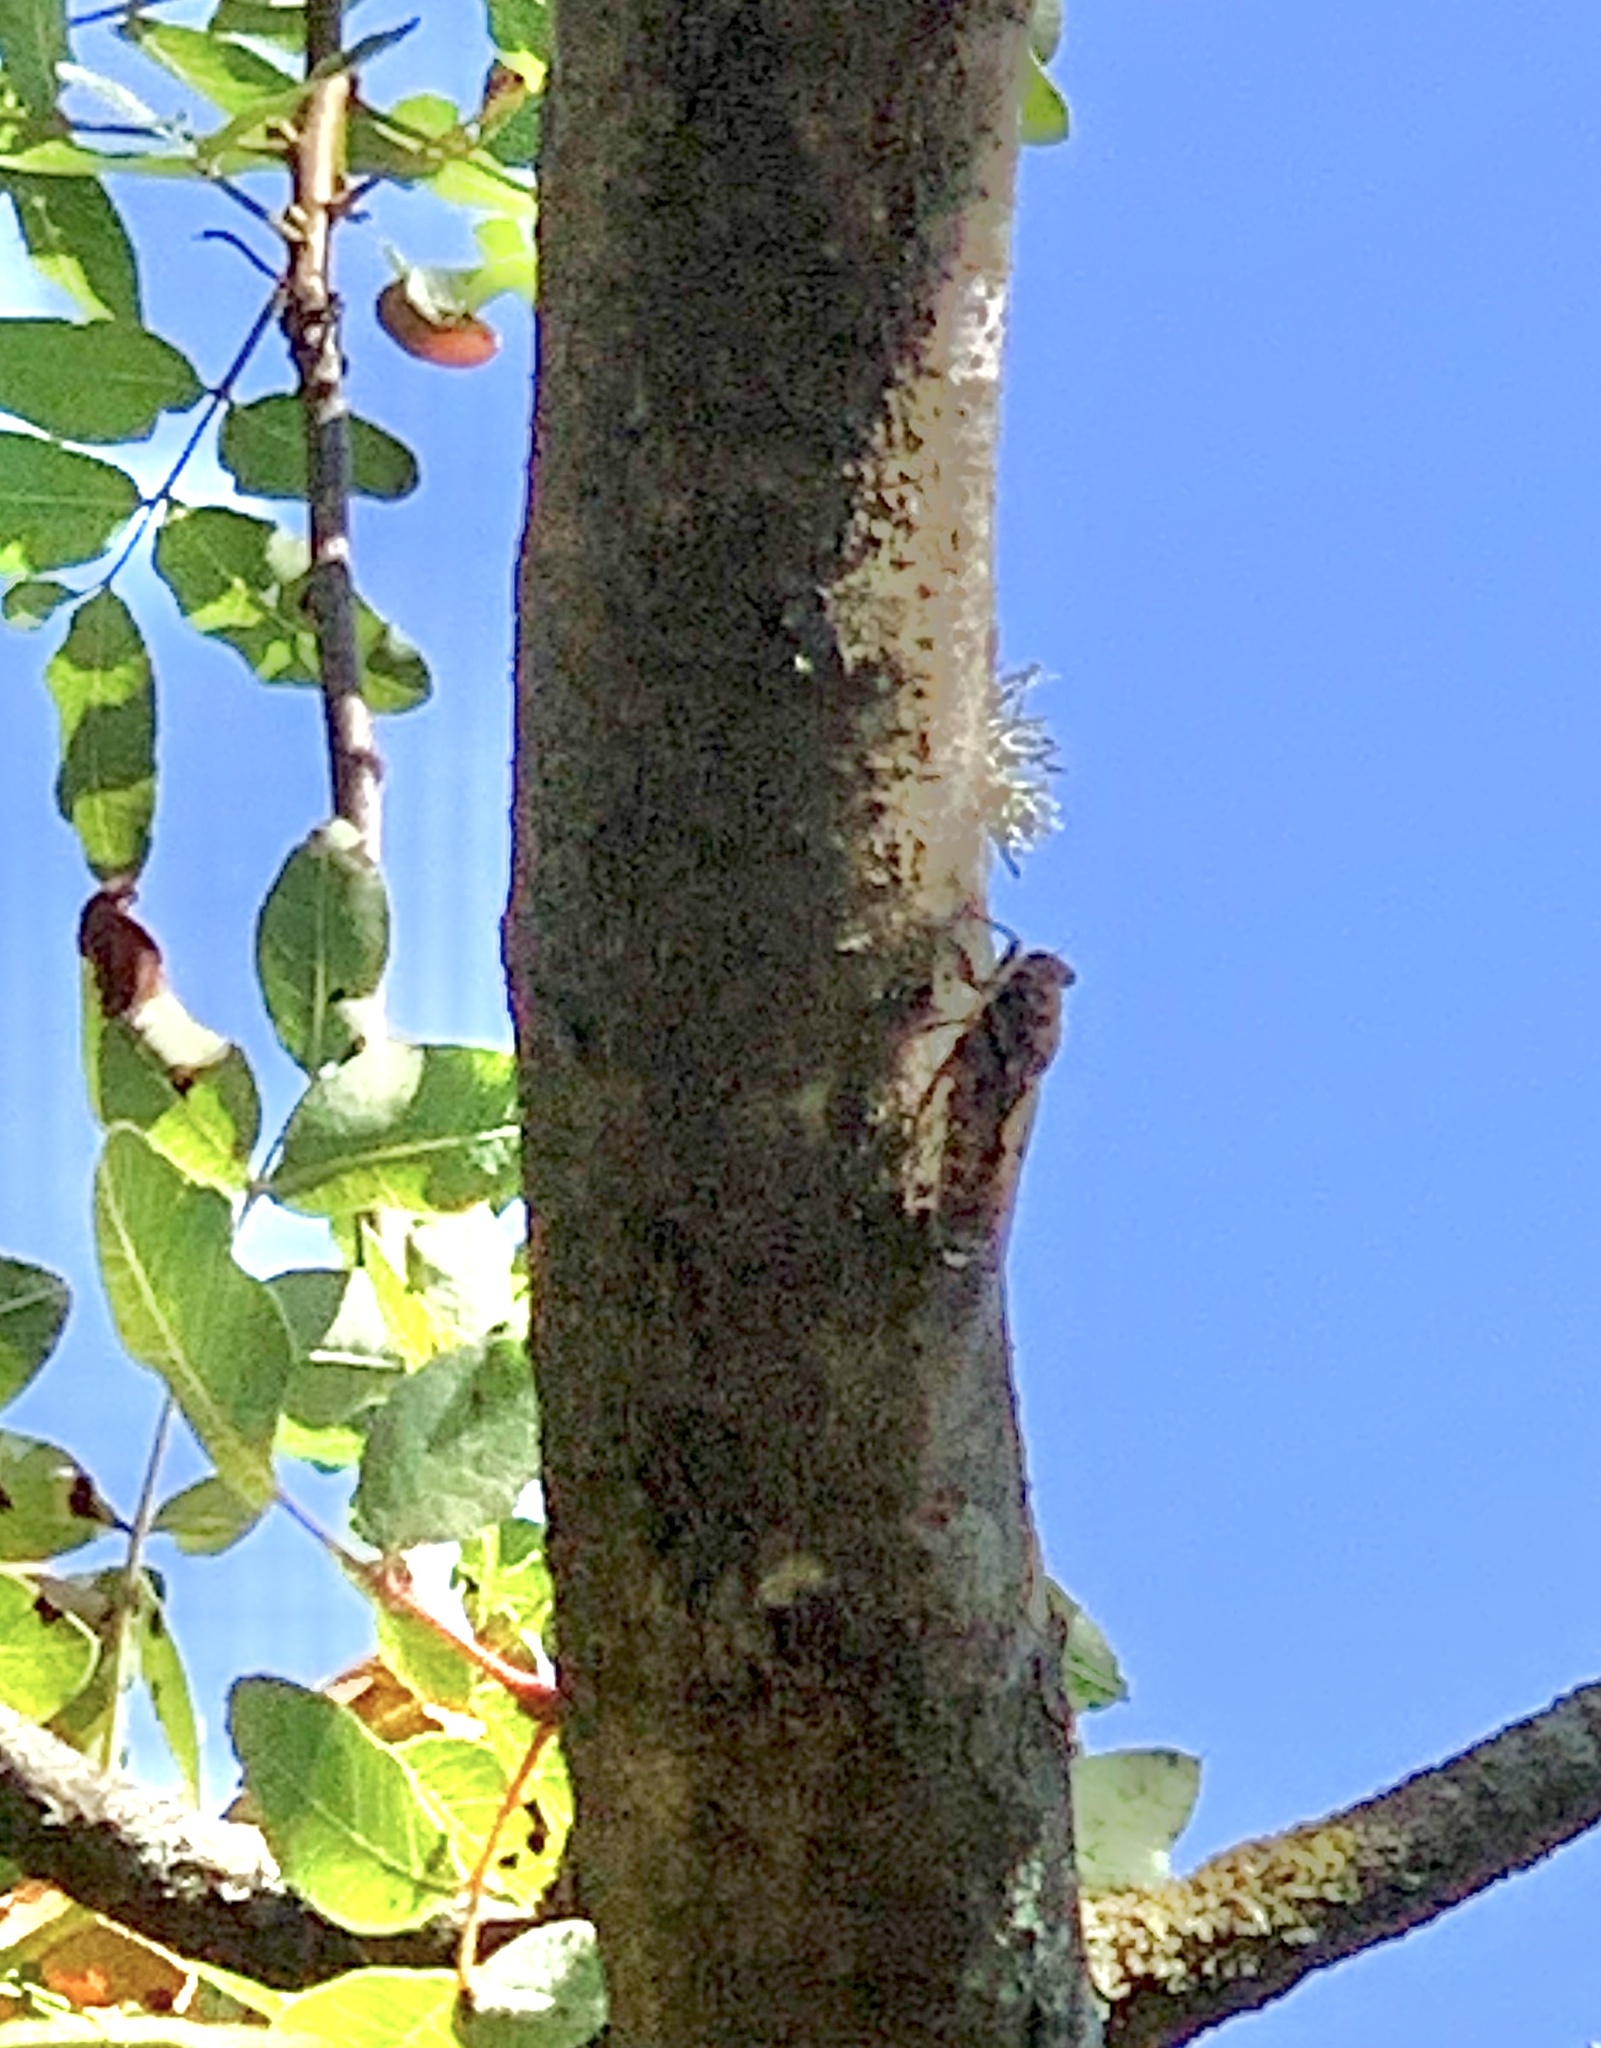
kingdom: Animalia
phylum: Arthropoda
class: Insecta
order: Hemiptera
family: Cicadidae
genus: Cicada
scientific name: Cicada orni
